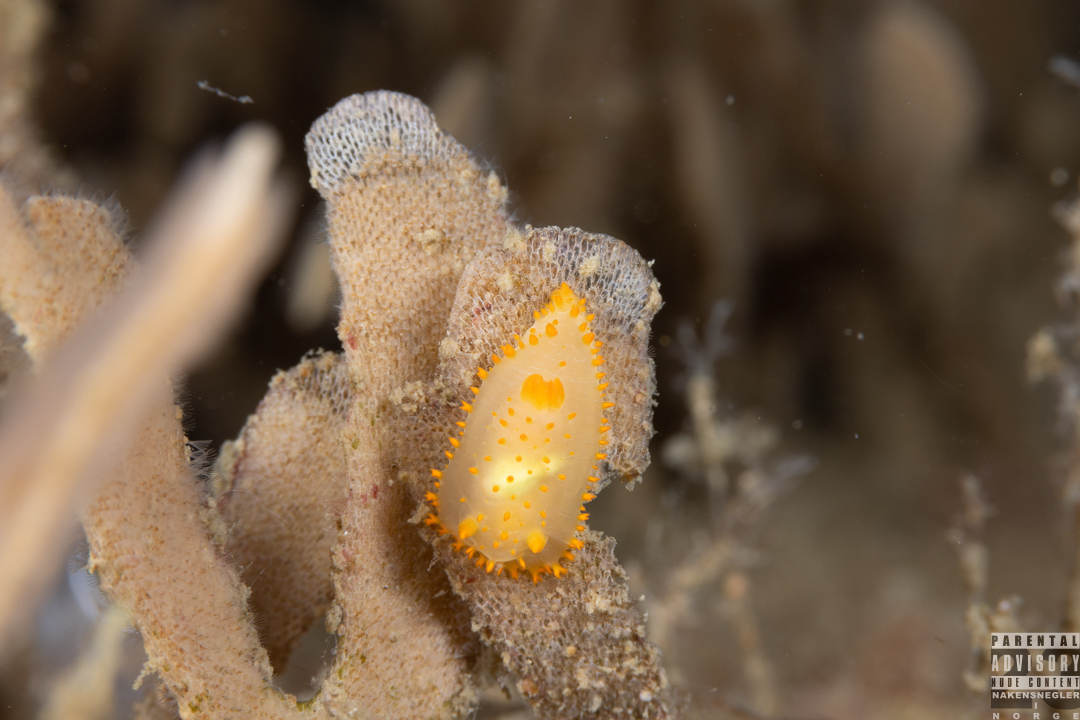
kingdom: Animalia
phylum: Mollusca
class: Gastropoda
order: Nudibranchia
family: Polyceridae
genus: Crimora
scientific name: Crimora papillata
